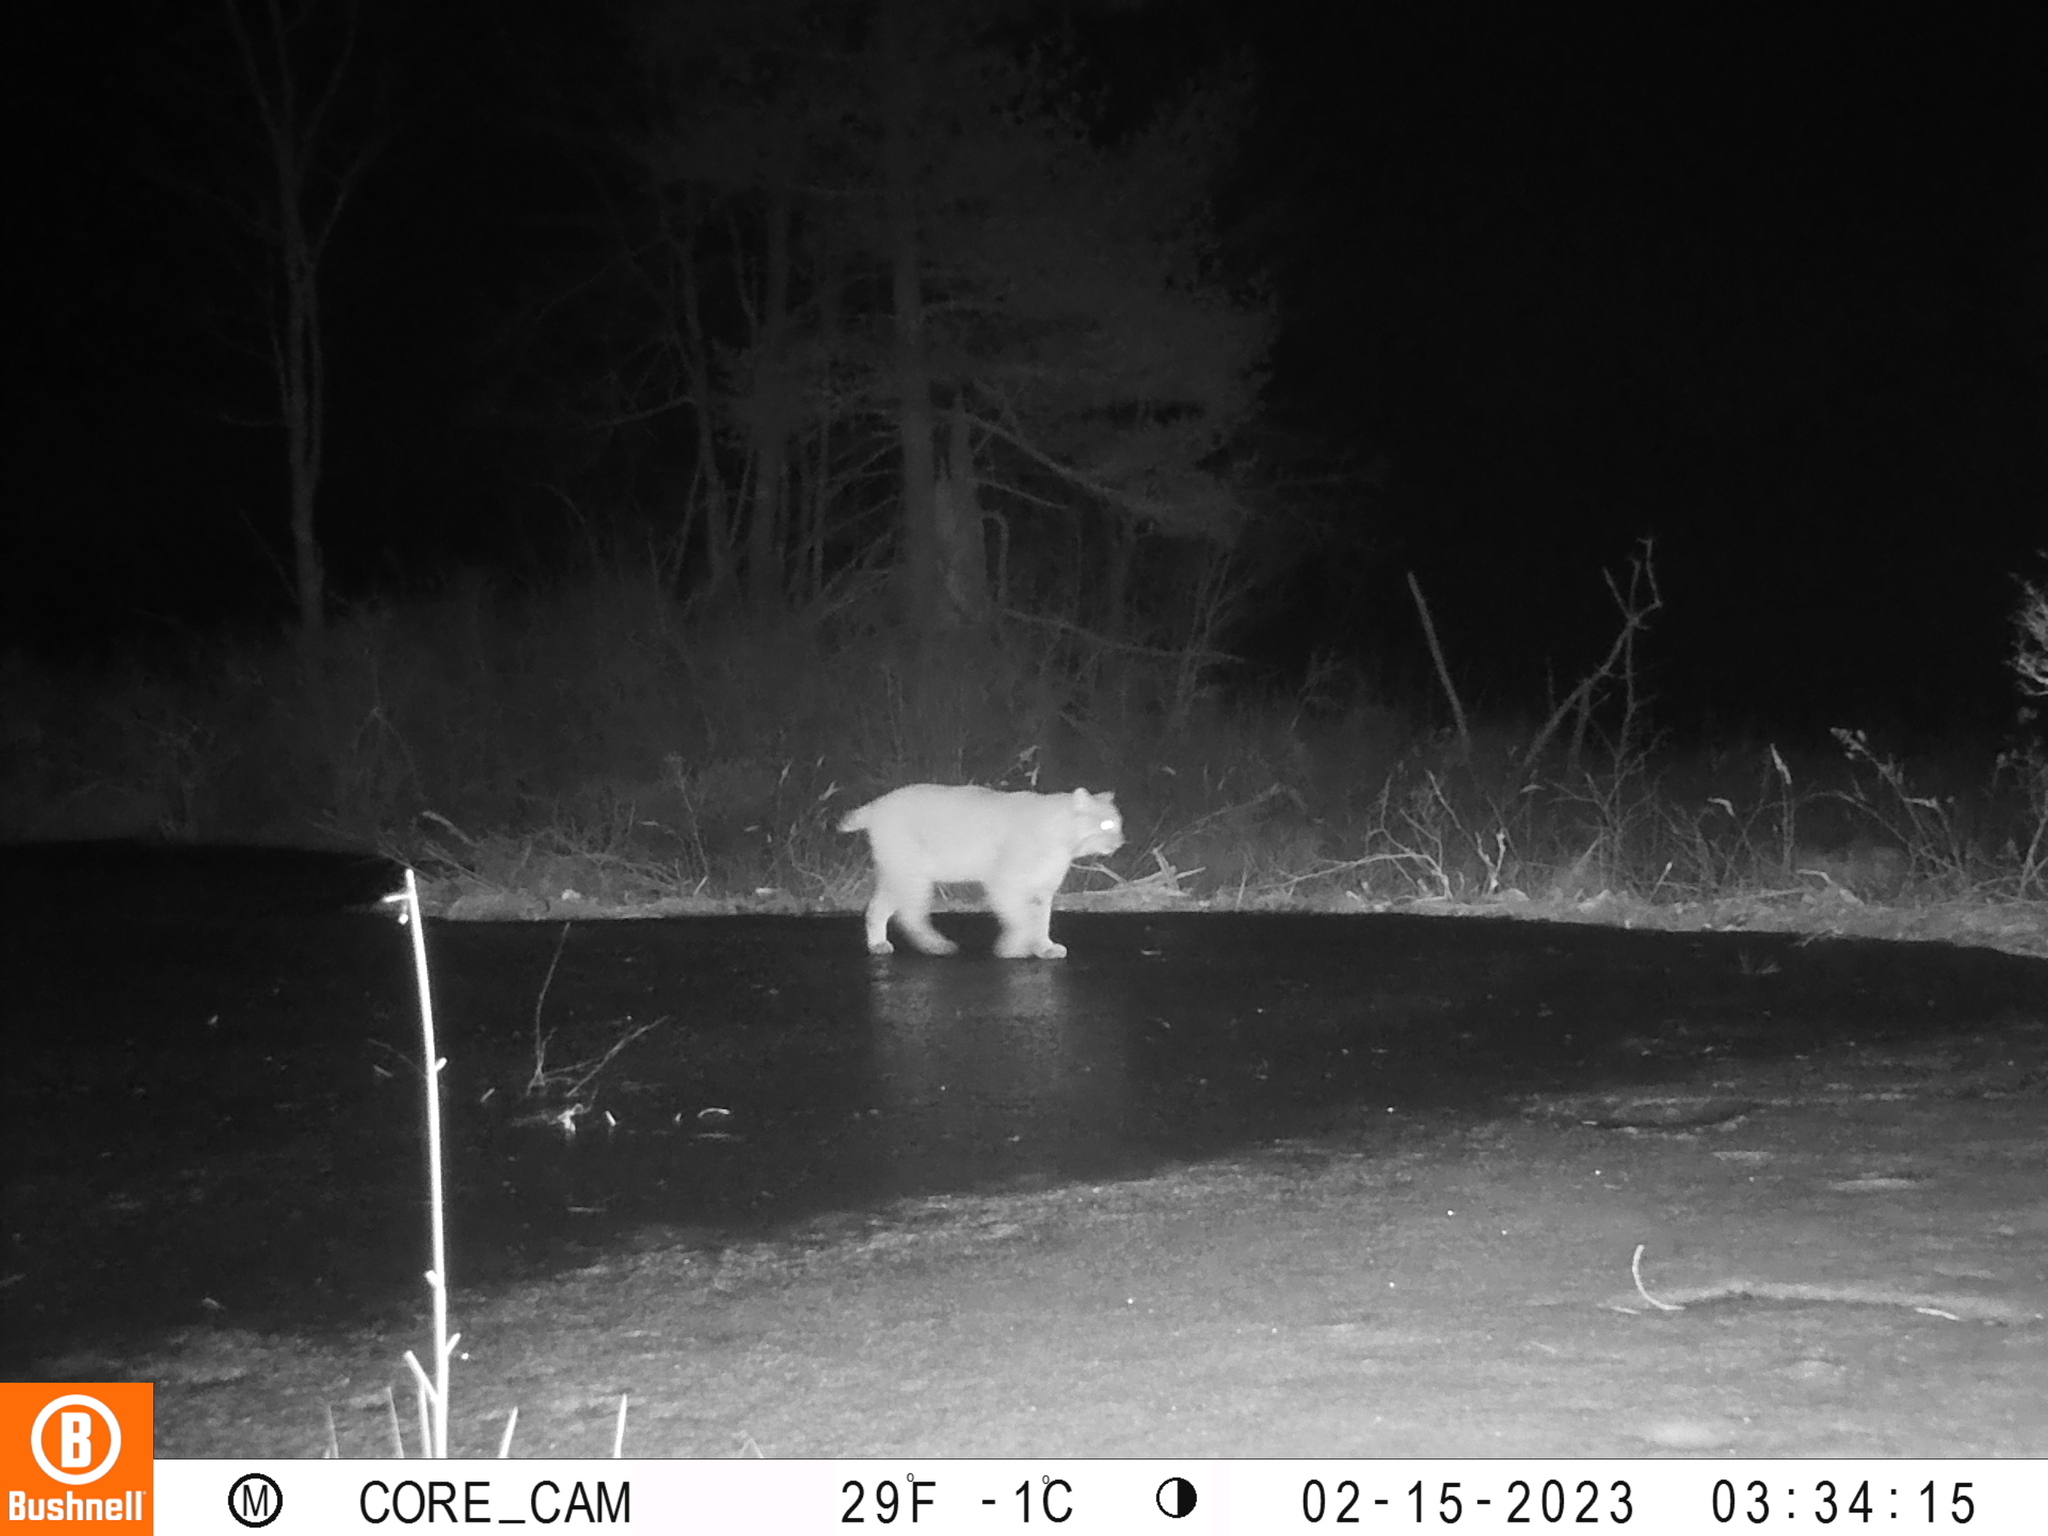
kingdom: Animalia
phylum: Chordata
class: Mammalia
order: Carnivora
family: Felidae
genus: Lynx
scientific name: Lynx rufus
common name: Bobcat
